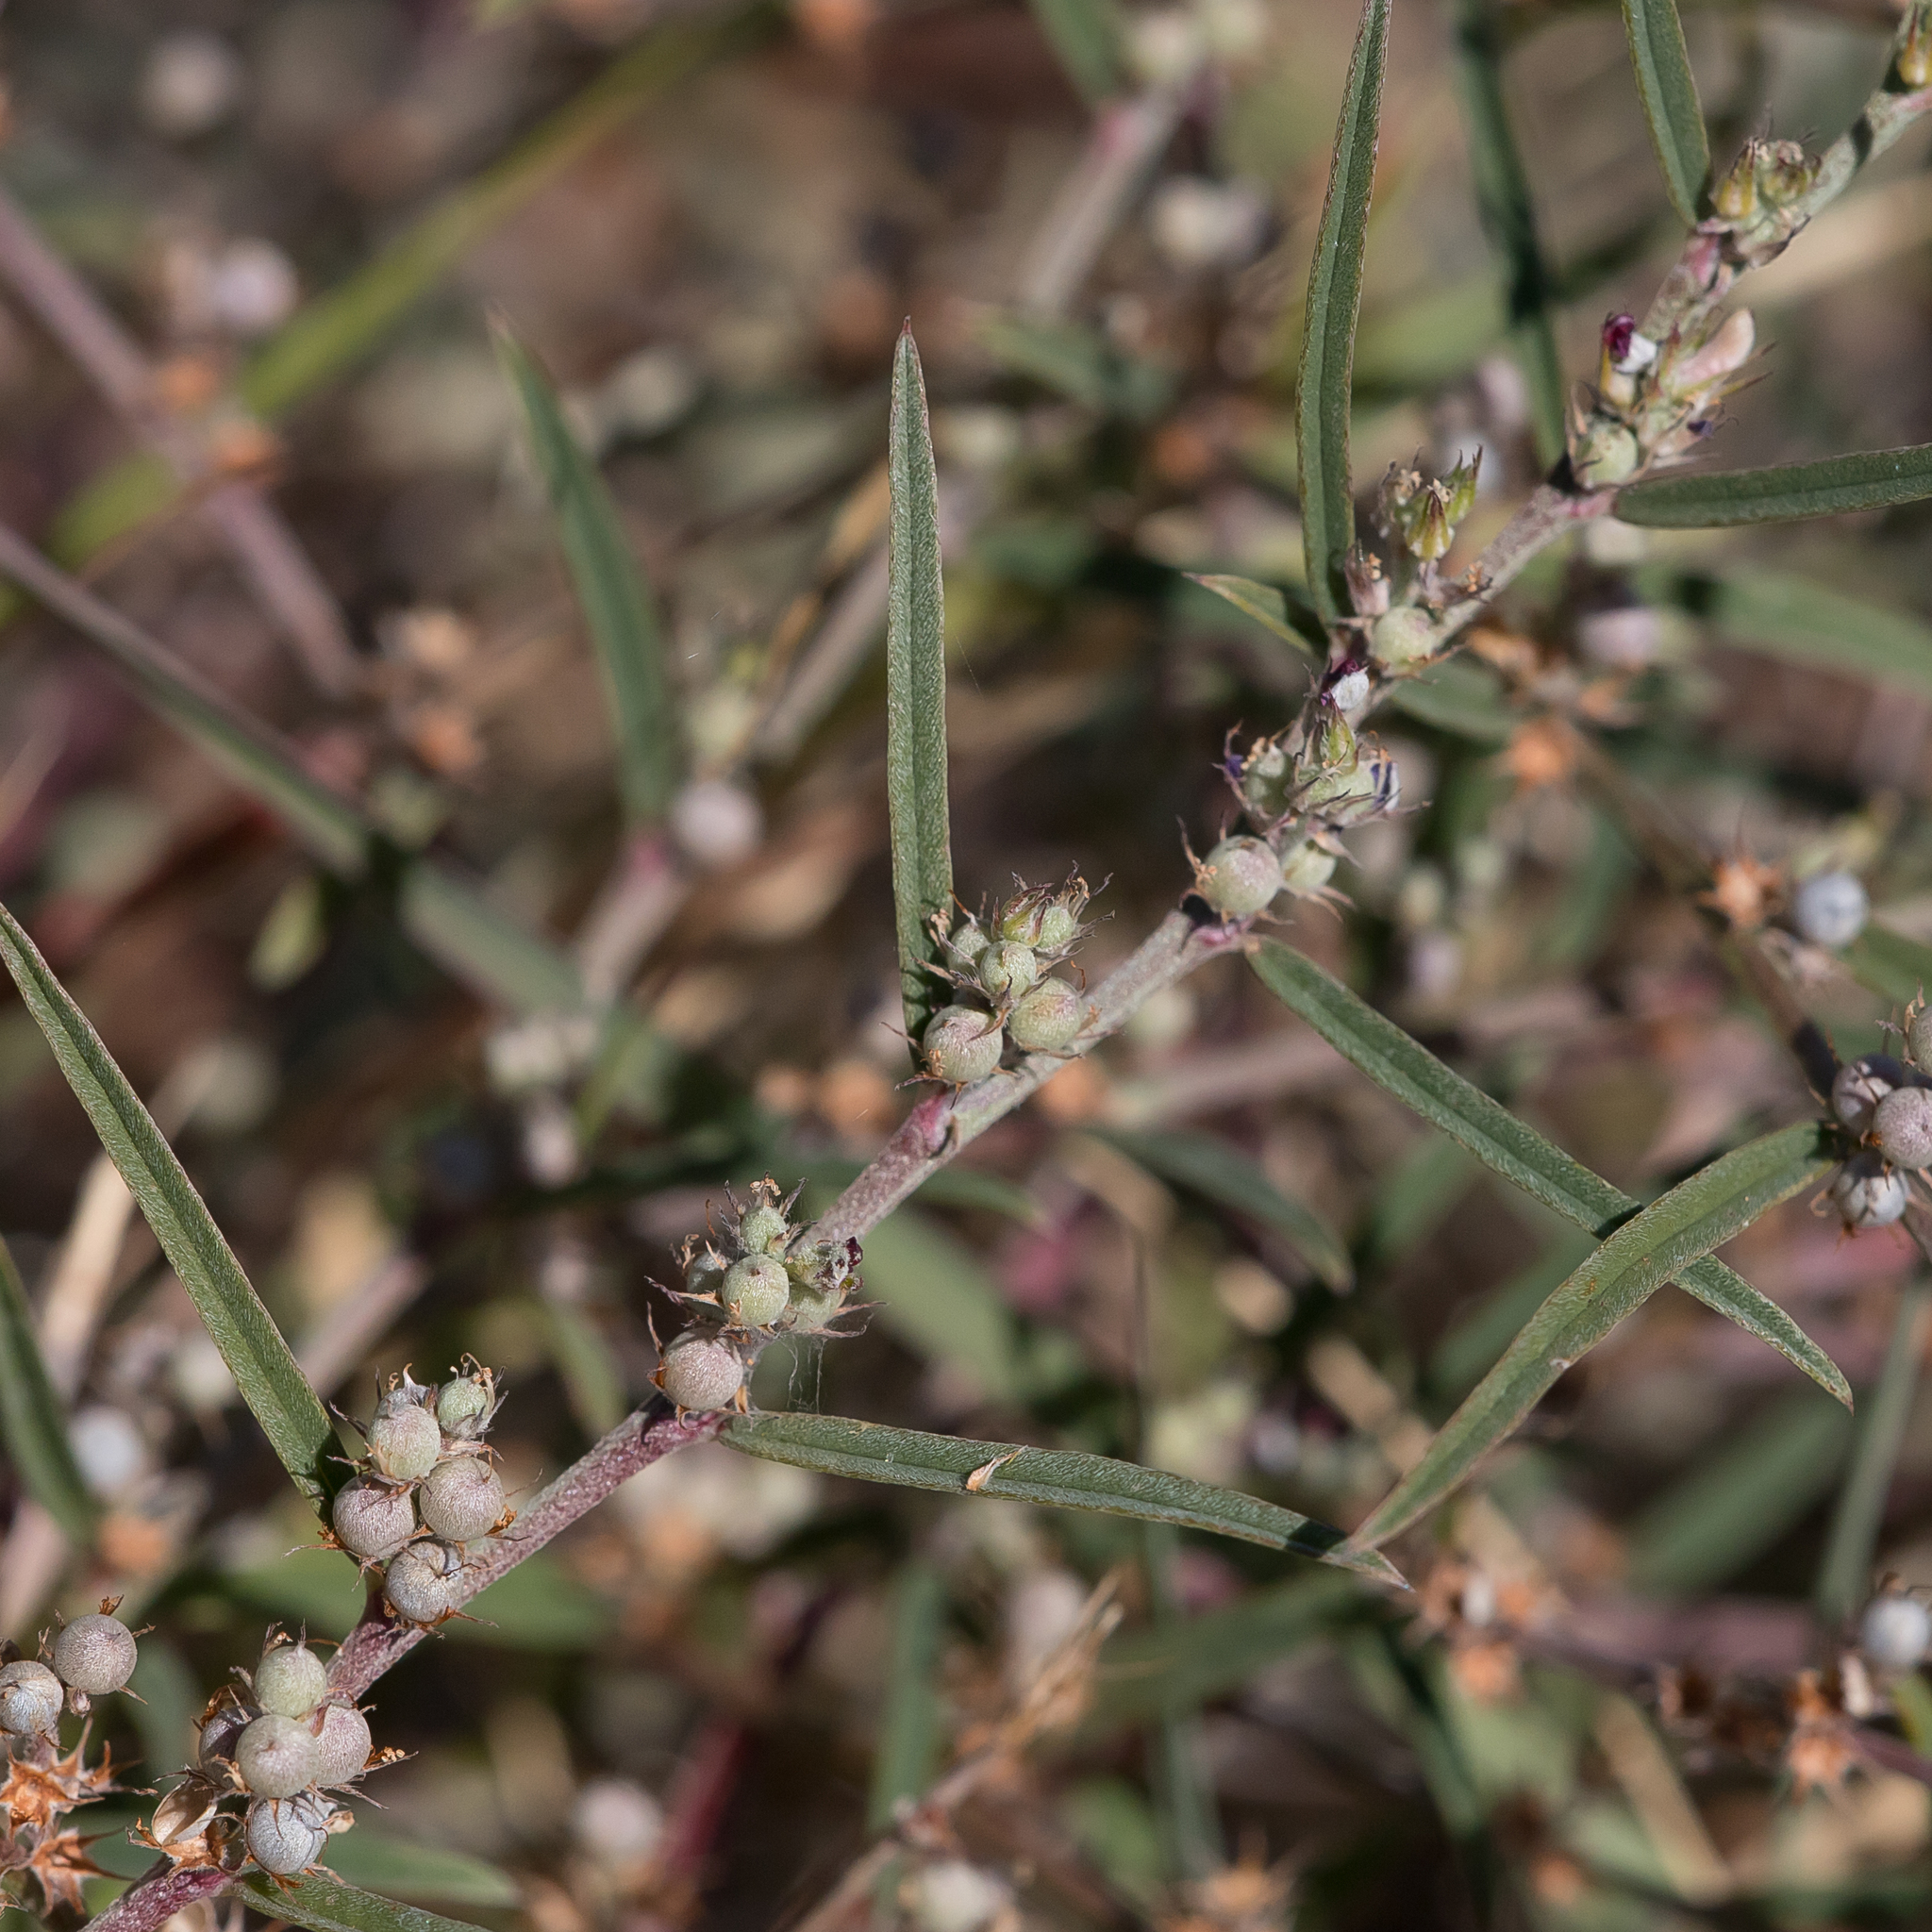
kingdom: Plantae
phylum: Tracheophyta
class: Magnoliopsida
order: Fabales
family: Fabaceae
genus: Indigofera
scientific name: Indigofera linifolia
